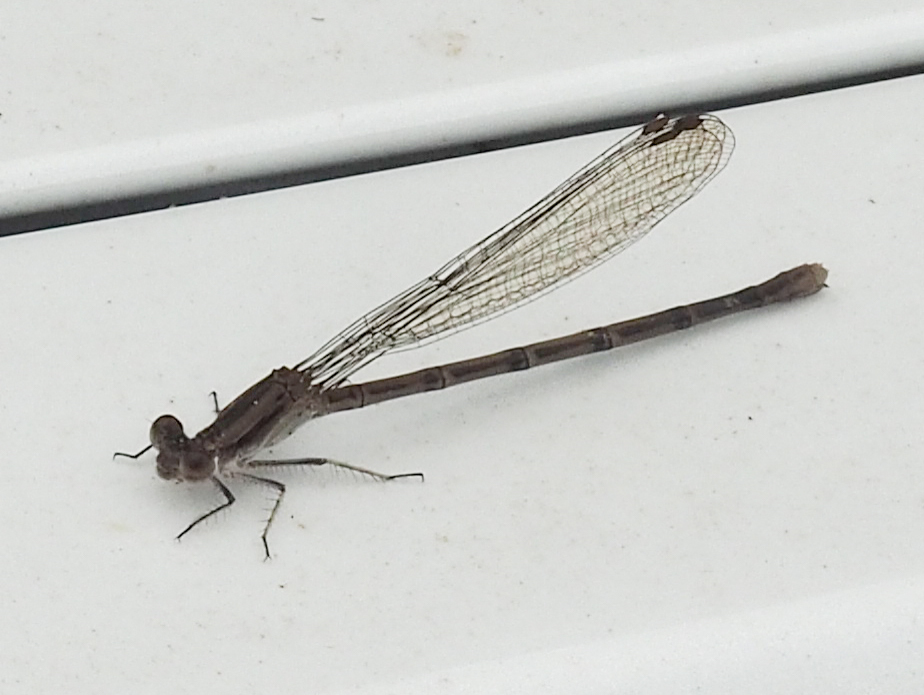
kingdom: Animalia
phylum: Arthropoda
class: Insecta
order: Odonata
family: Coenagrionidae
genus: Argia
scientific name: Argia fumipennis
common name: Variable dancer
